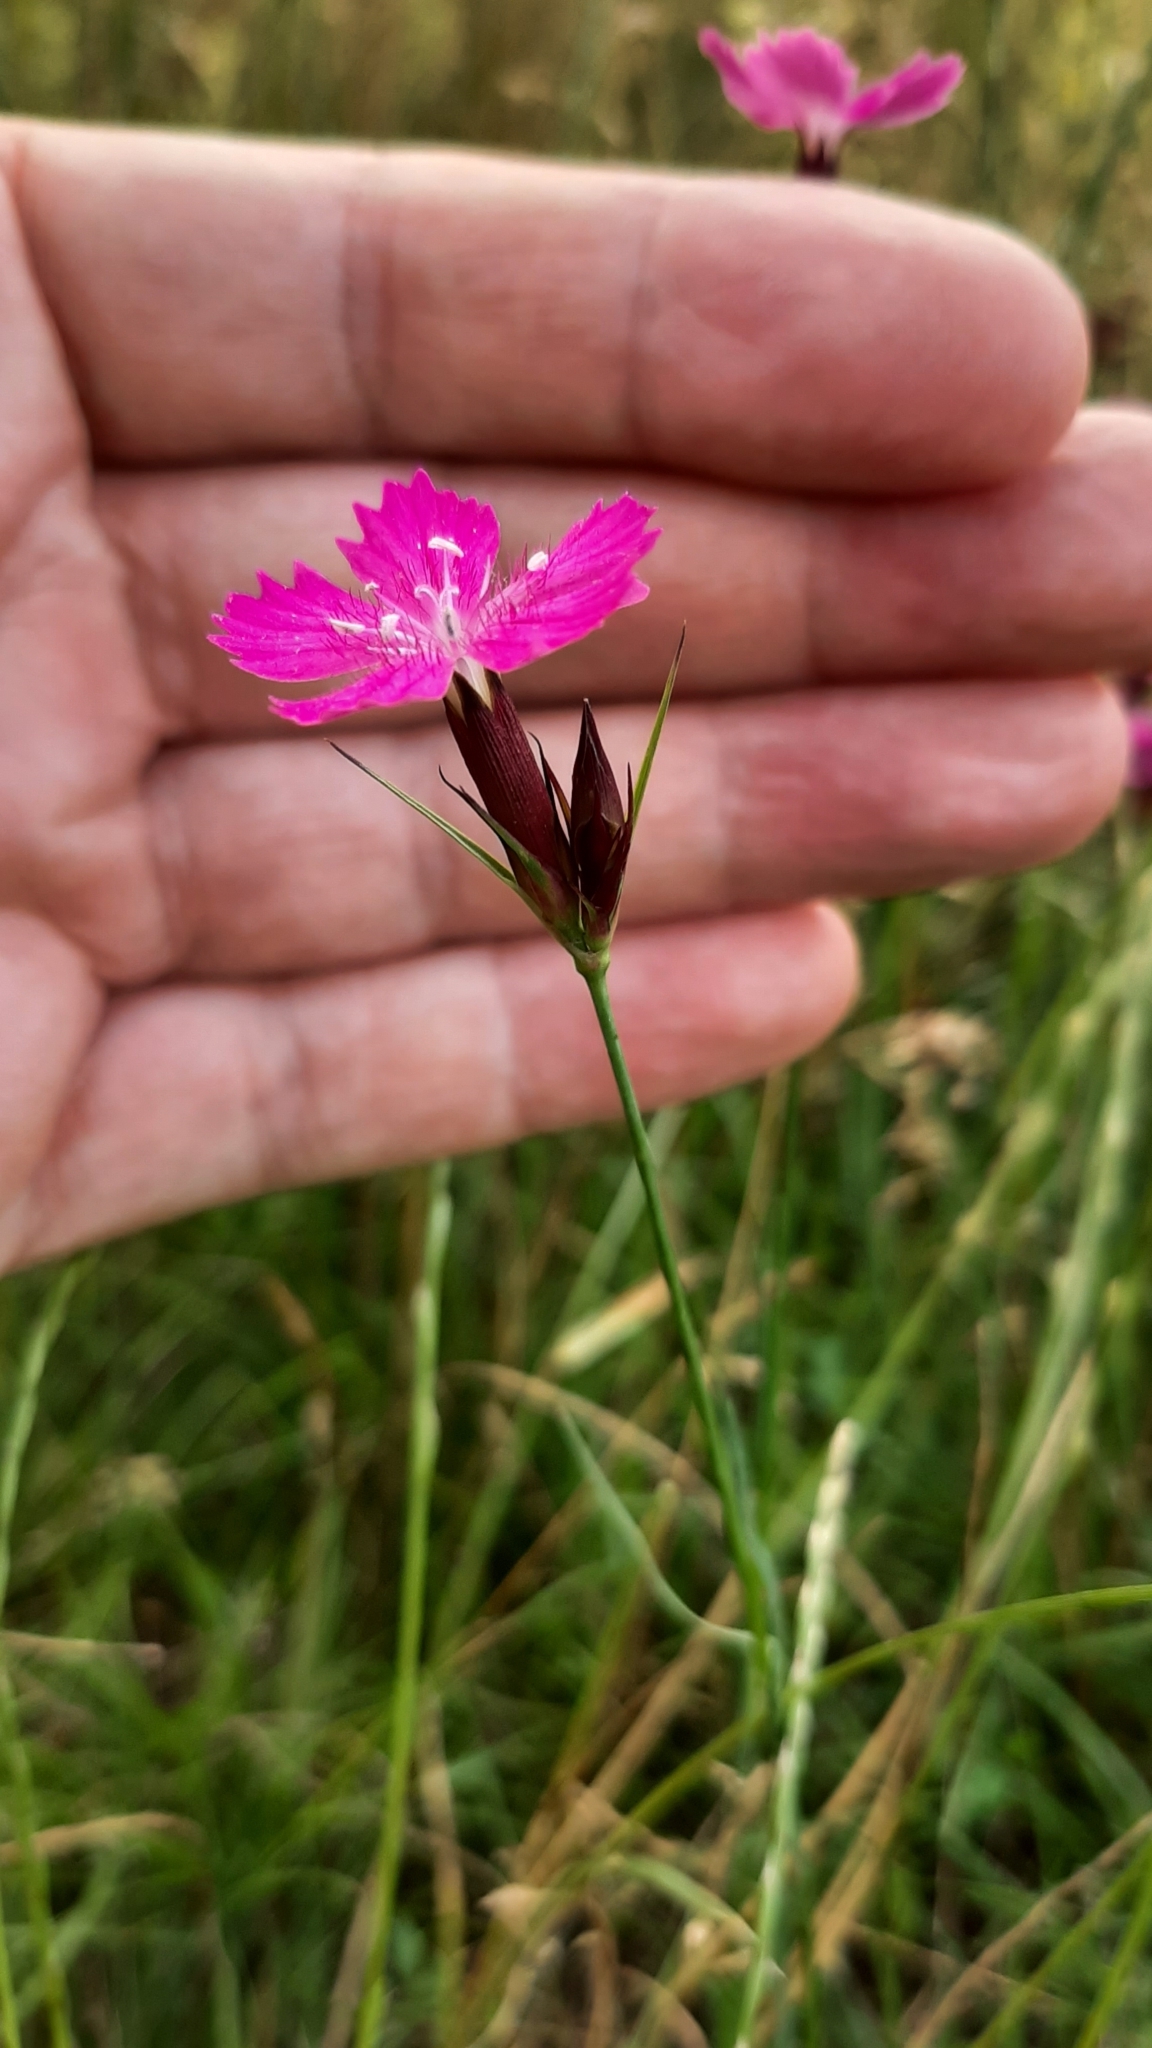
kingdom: Plantae
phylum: Tracheophyta
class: Magnoliopsida
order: Caryophyllales
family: Caryophyllaceae
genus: Dianthus
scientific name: Dianthus carthusianorum
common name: Carthusian pink
